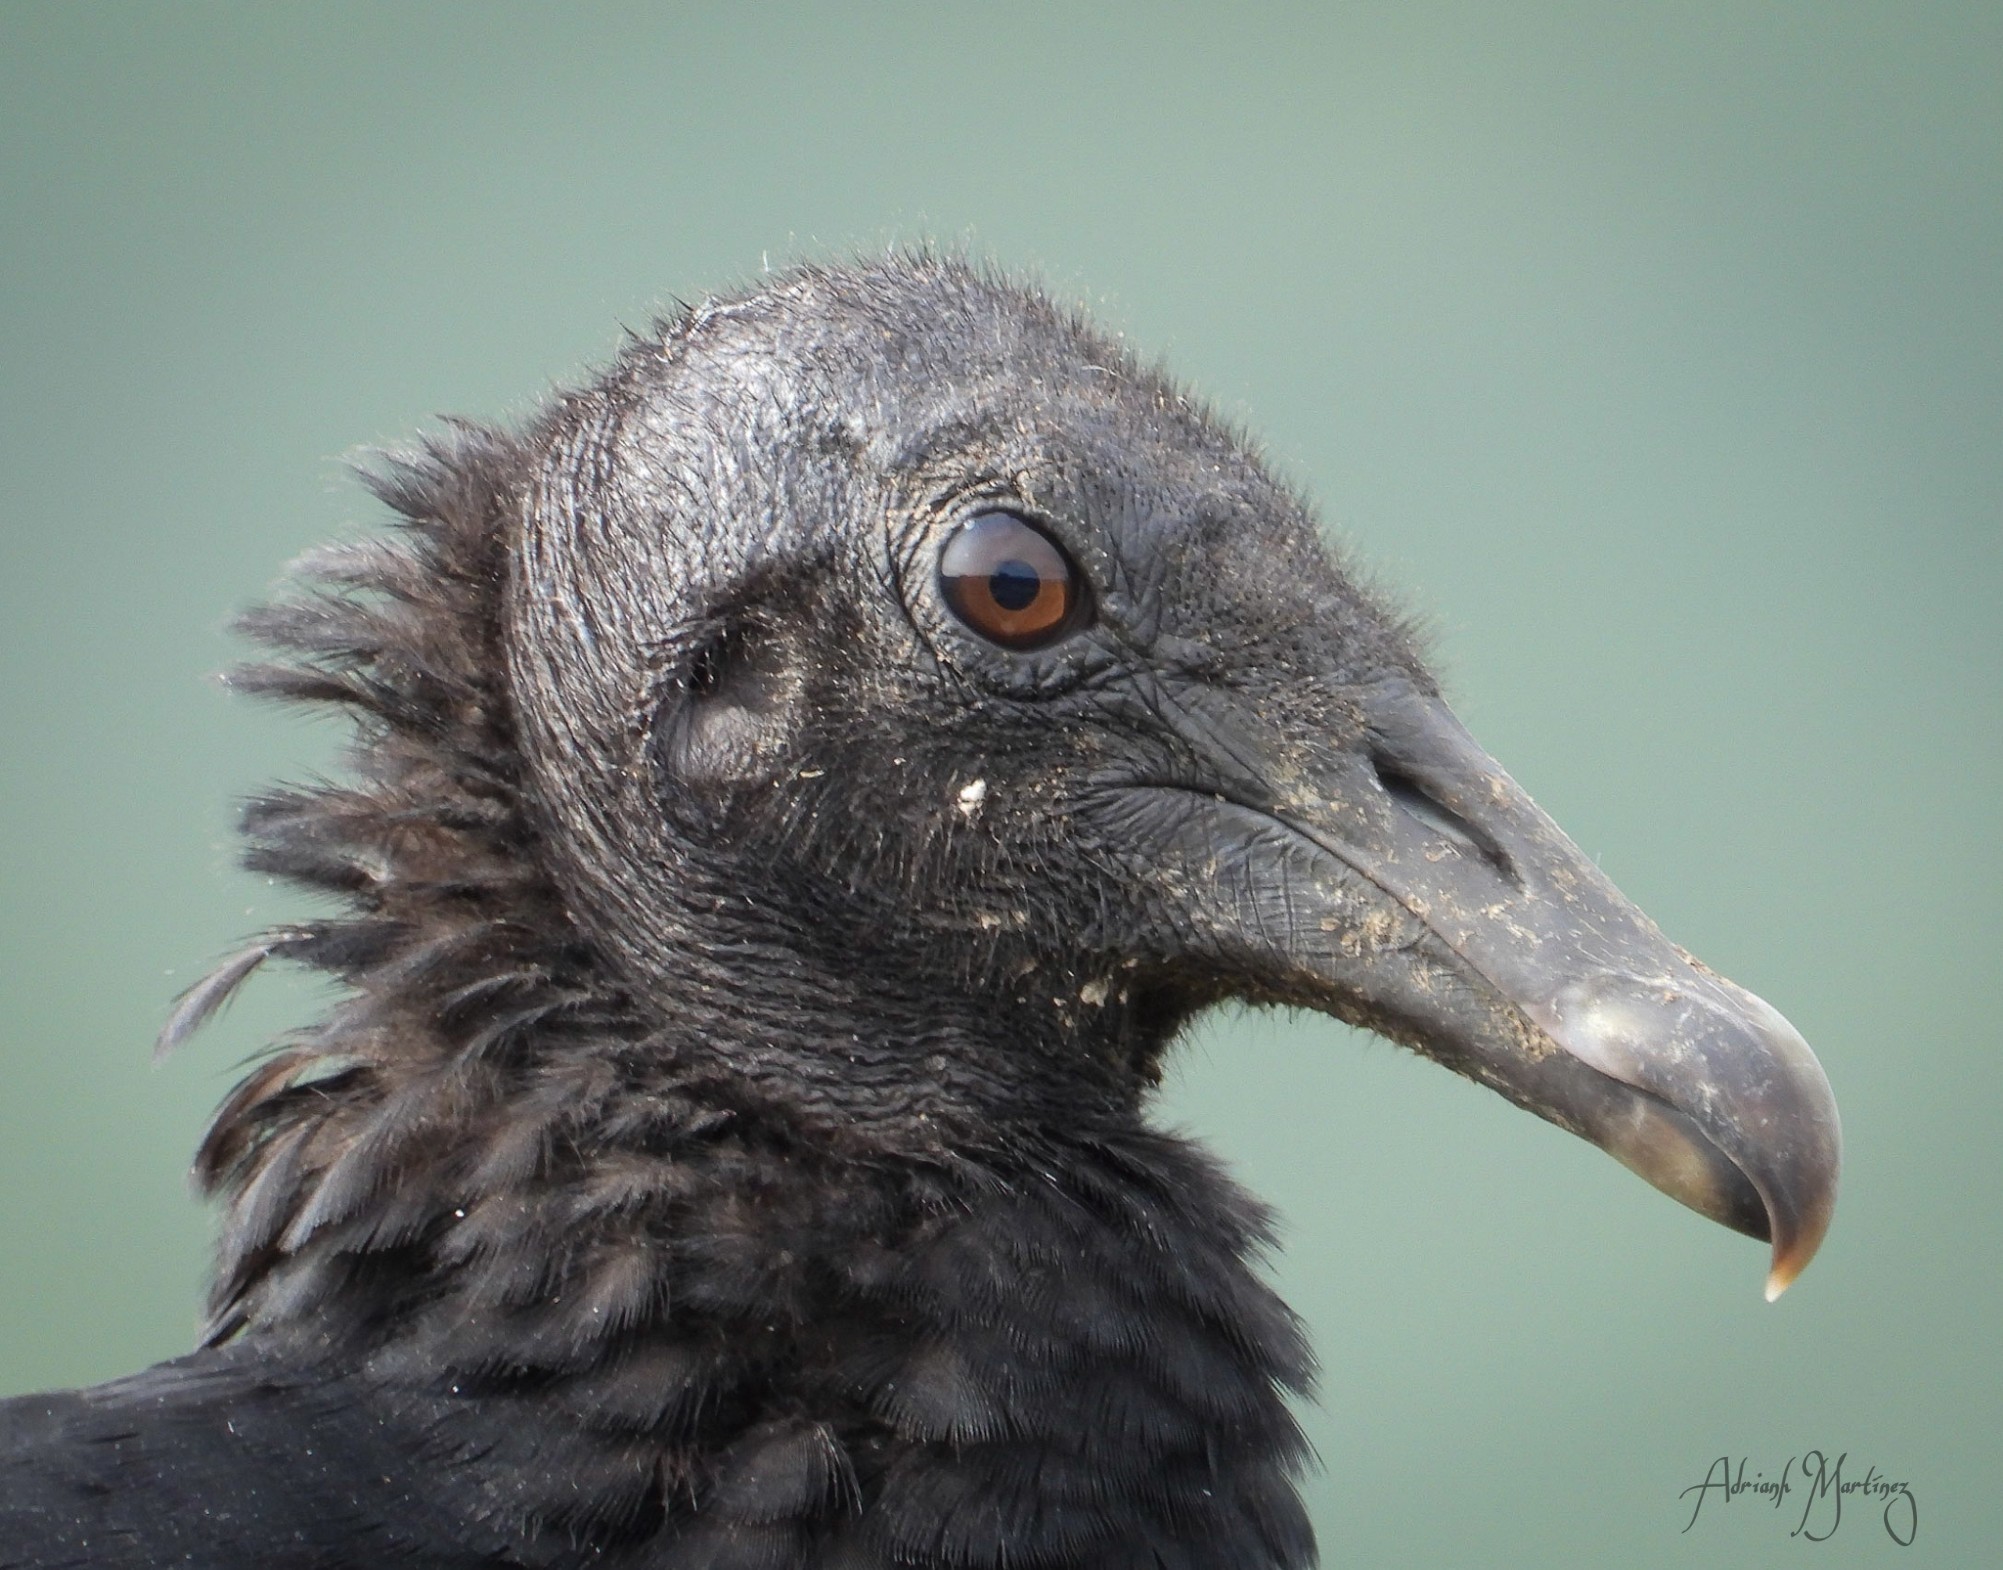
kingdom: Animalia
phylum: Chordata
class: Aves
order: Accipitriformes
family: Cathartidae
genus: Coragyps
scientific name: Coragyps atratus
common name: Black vulture
